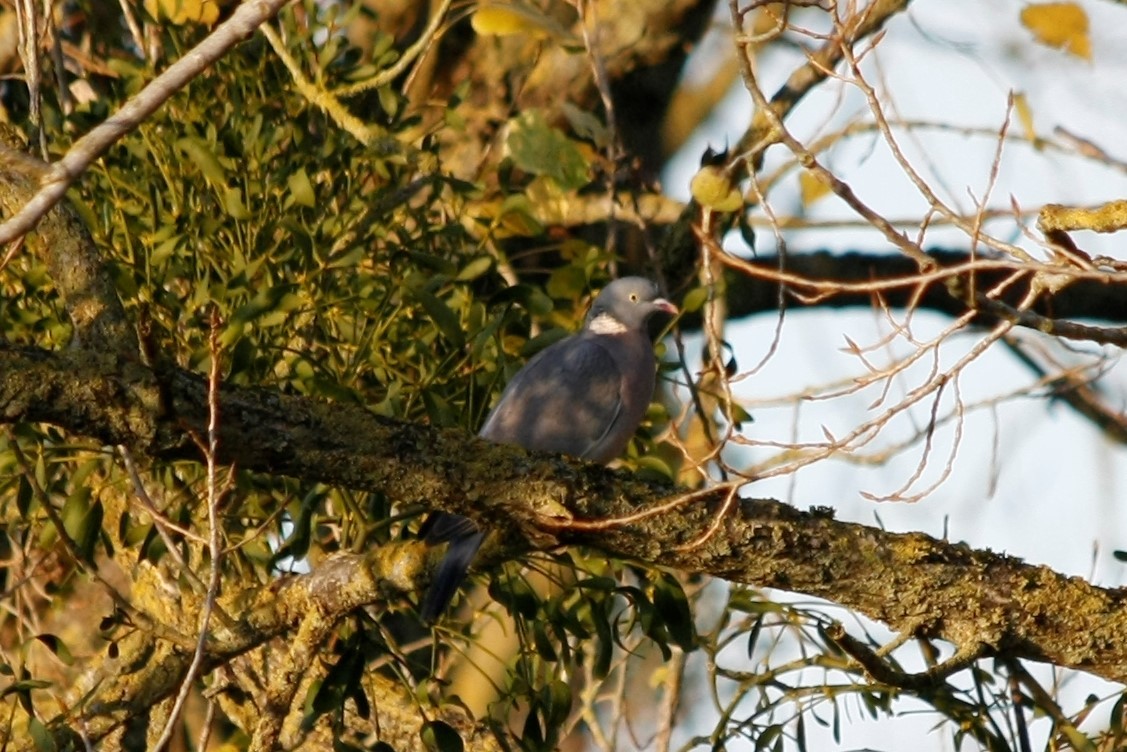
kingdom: Animalia
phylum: Chordata
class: Aves
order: Columbiformes
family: Columbidae
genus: Columba
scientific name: Columba palumbus
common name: Common wood pigeon
